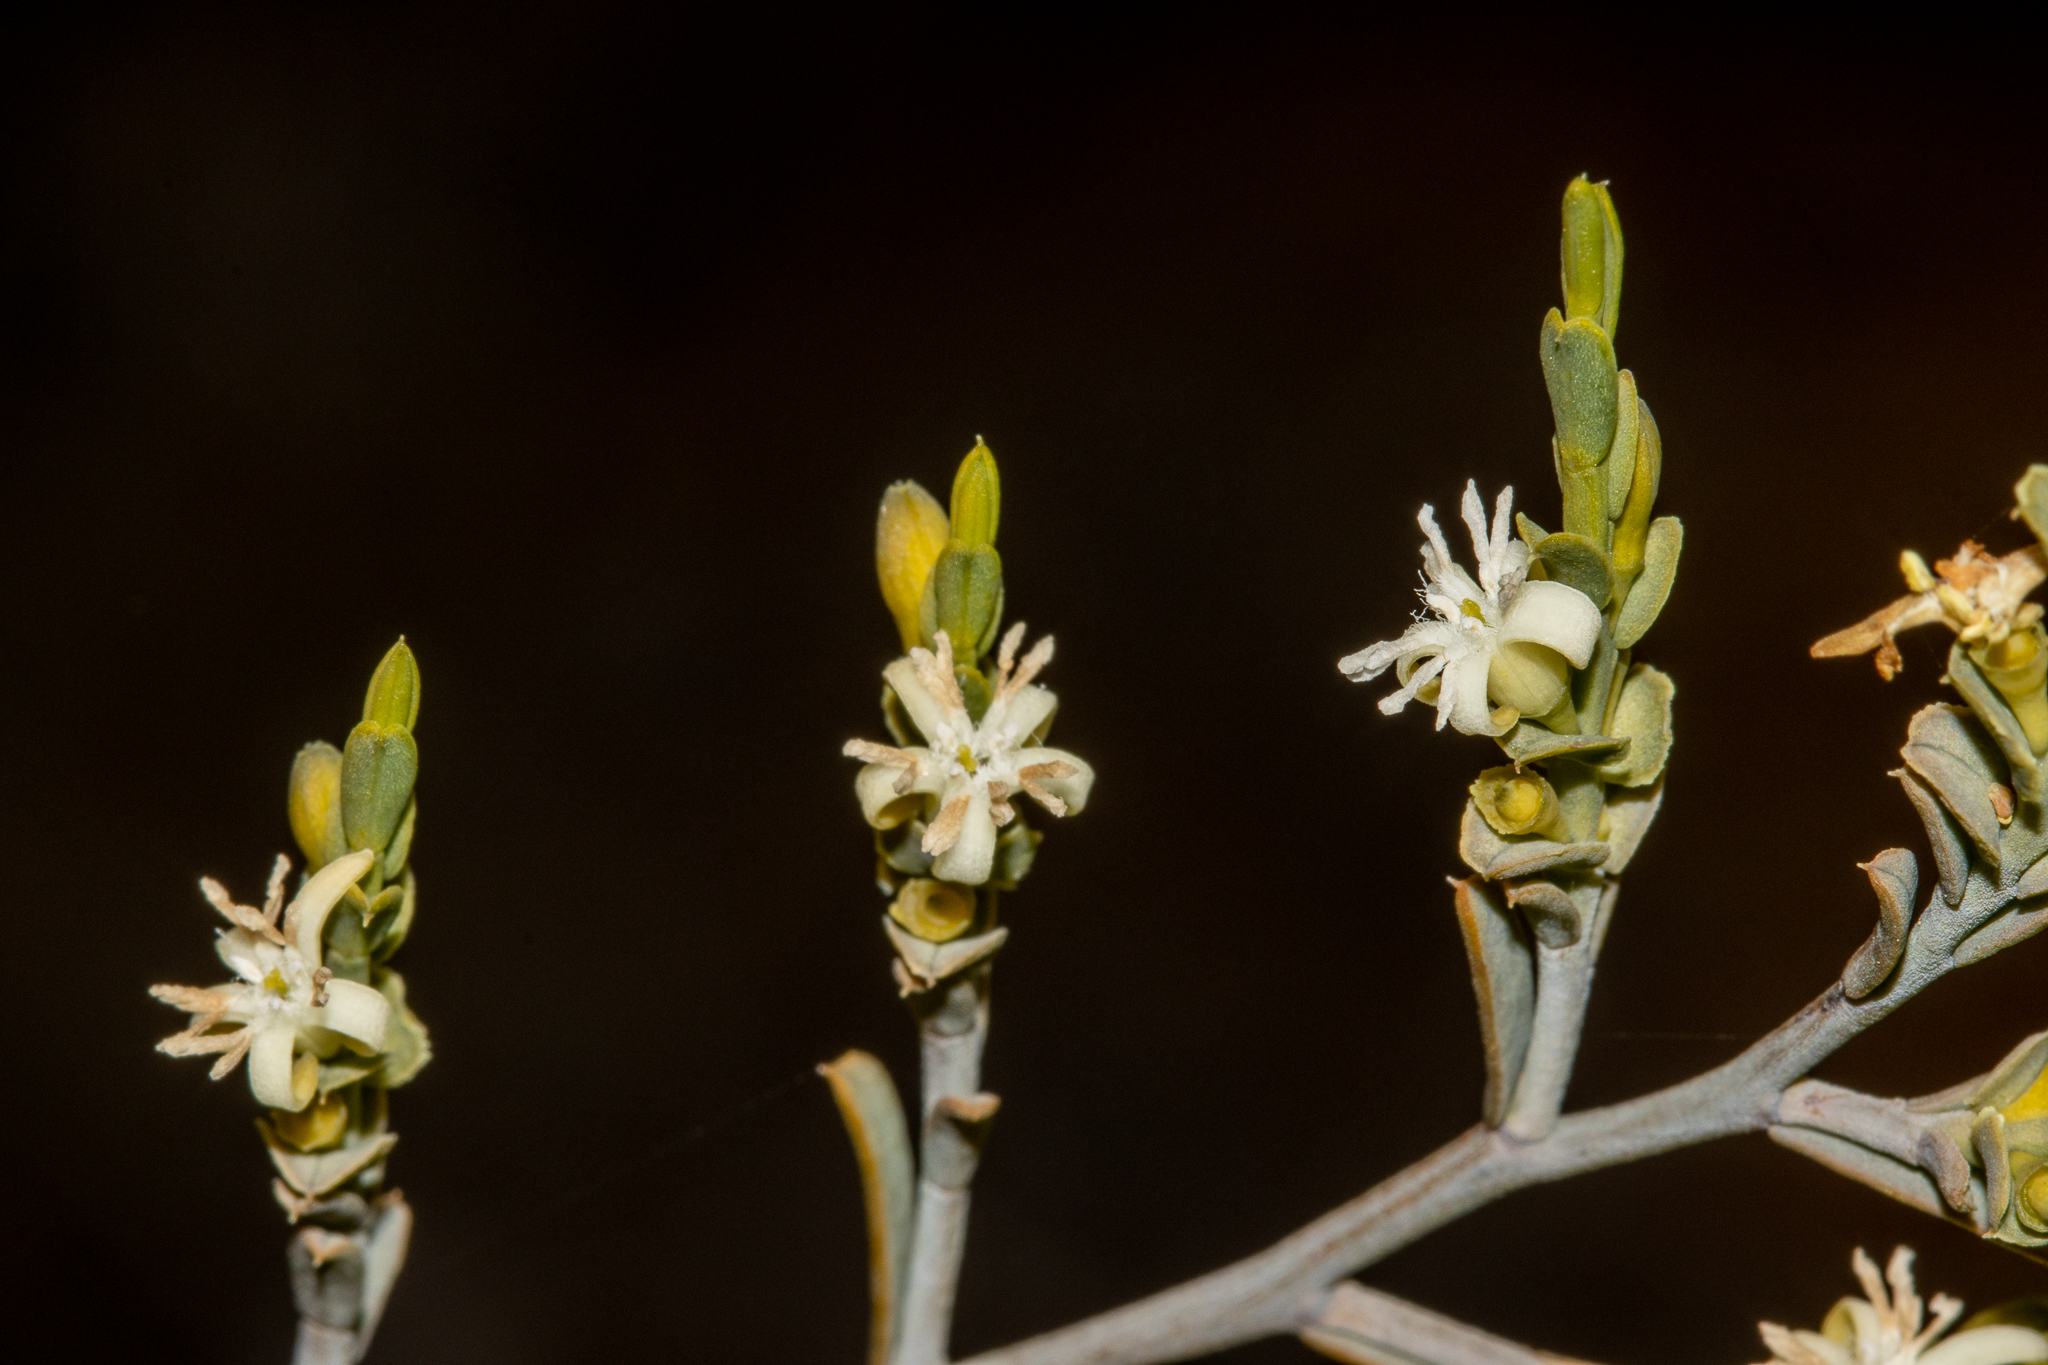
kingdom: Plantae
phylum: Tracheophyta
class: Magnoliopsida
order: Santalales
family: Olacaceae
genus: Olax
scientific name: Olax benthamiana
